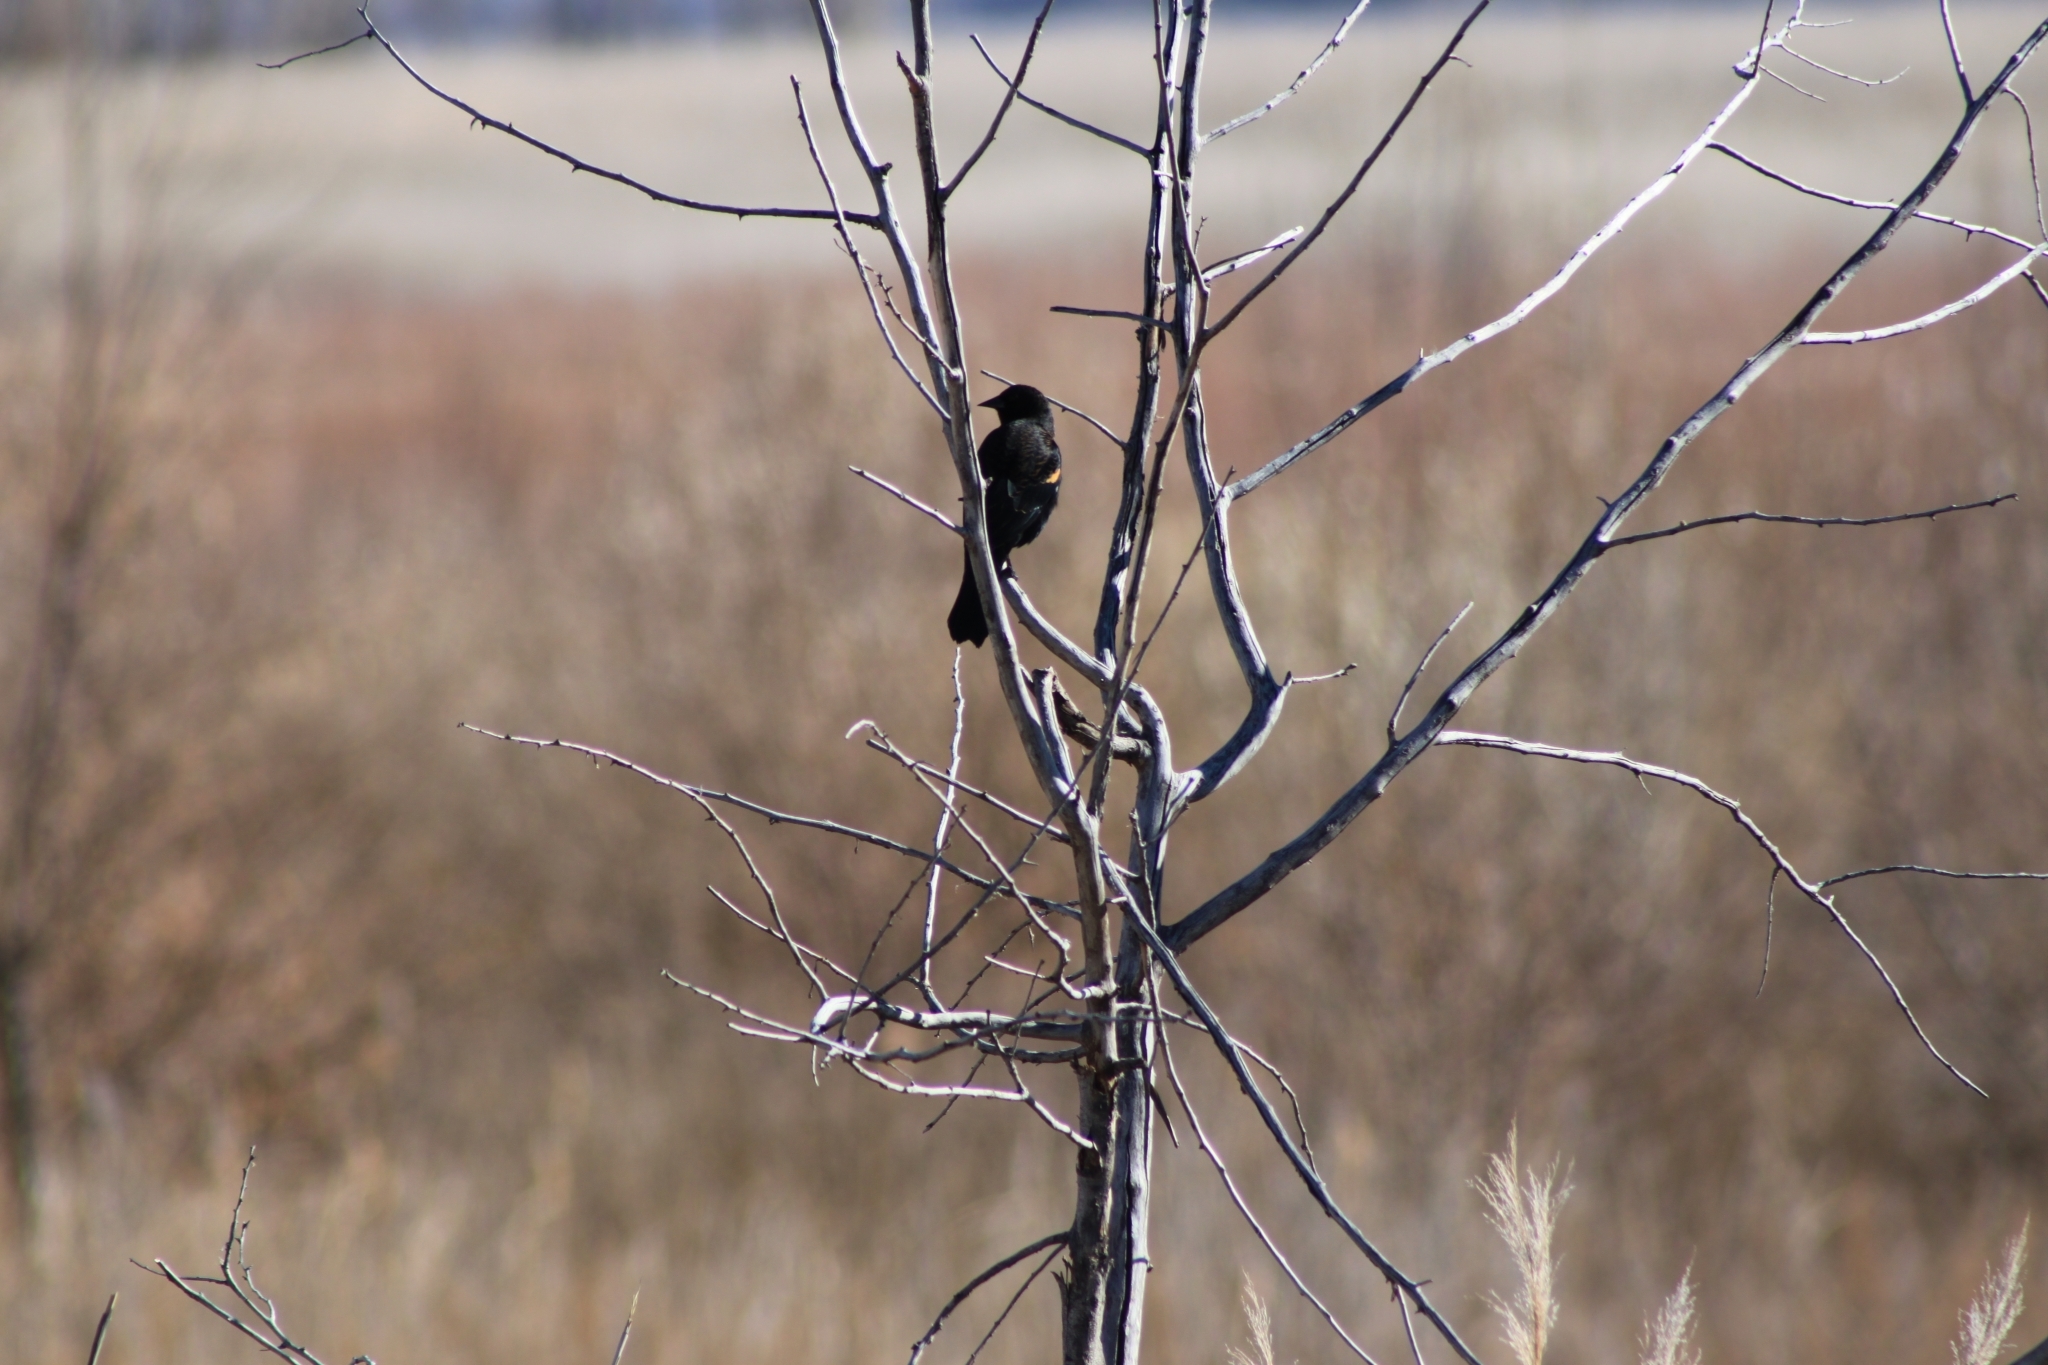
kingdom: Animalia
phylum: Chordata
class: Aves
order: Passeriformes
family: Icteridae
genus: Agelaius
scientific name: Agelaius phoeniceus
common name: Red-winged blackbird
